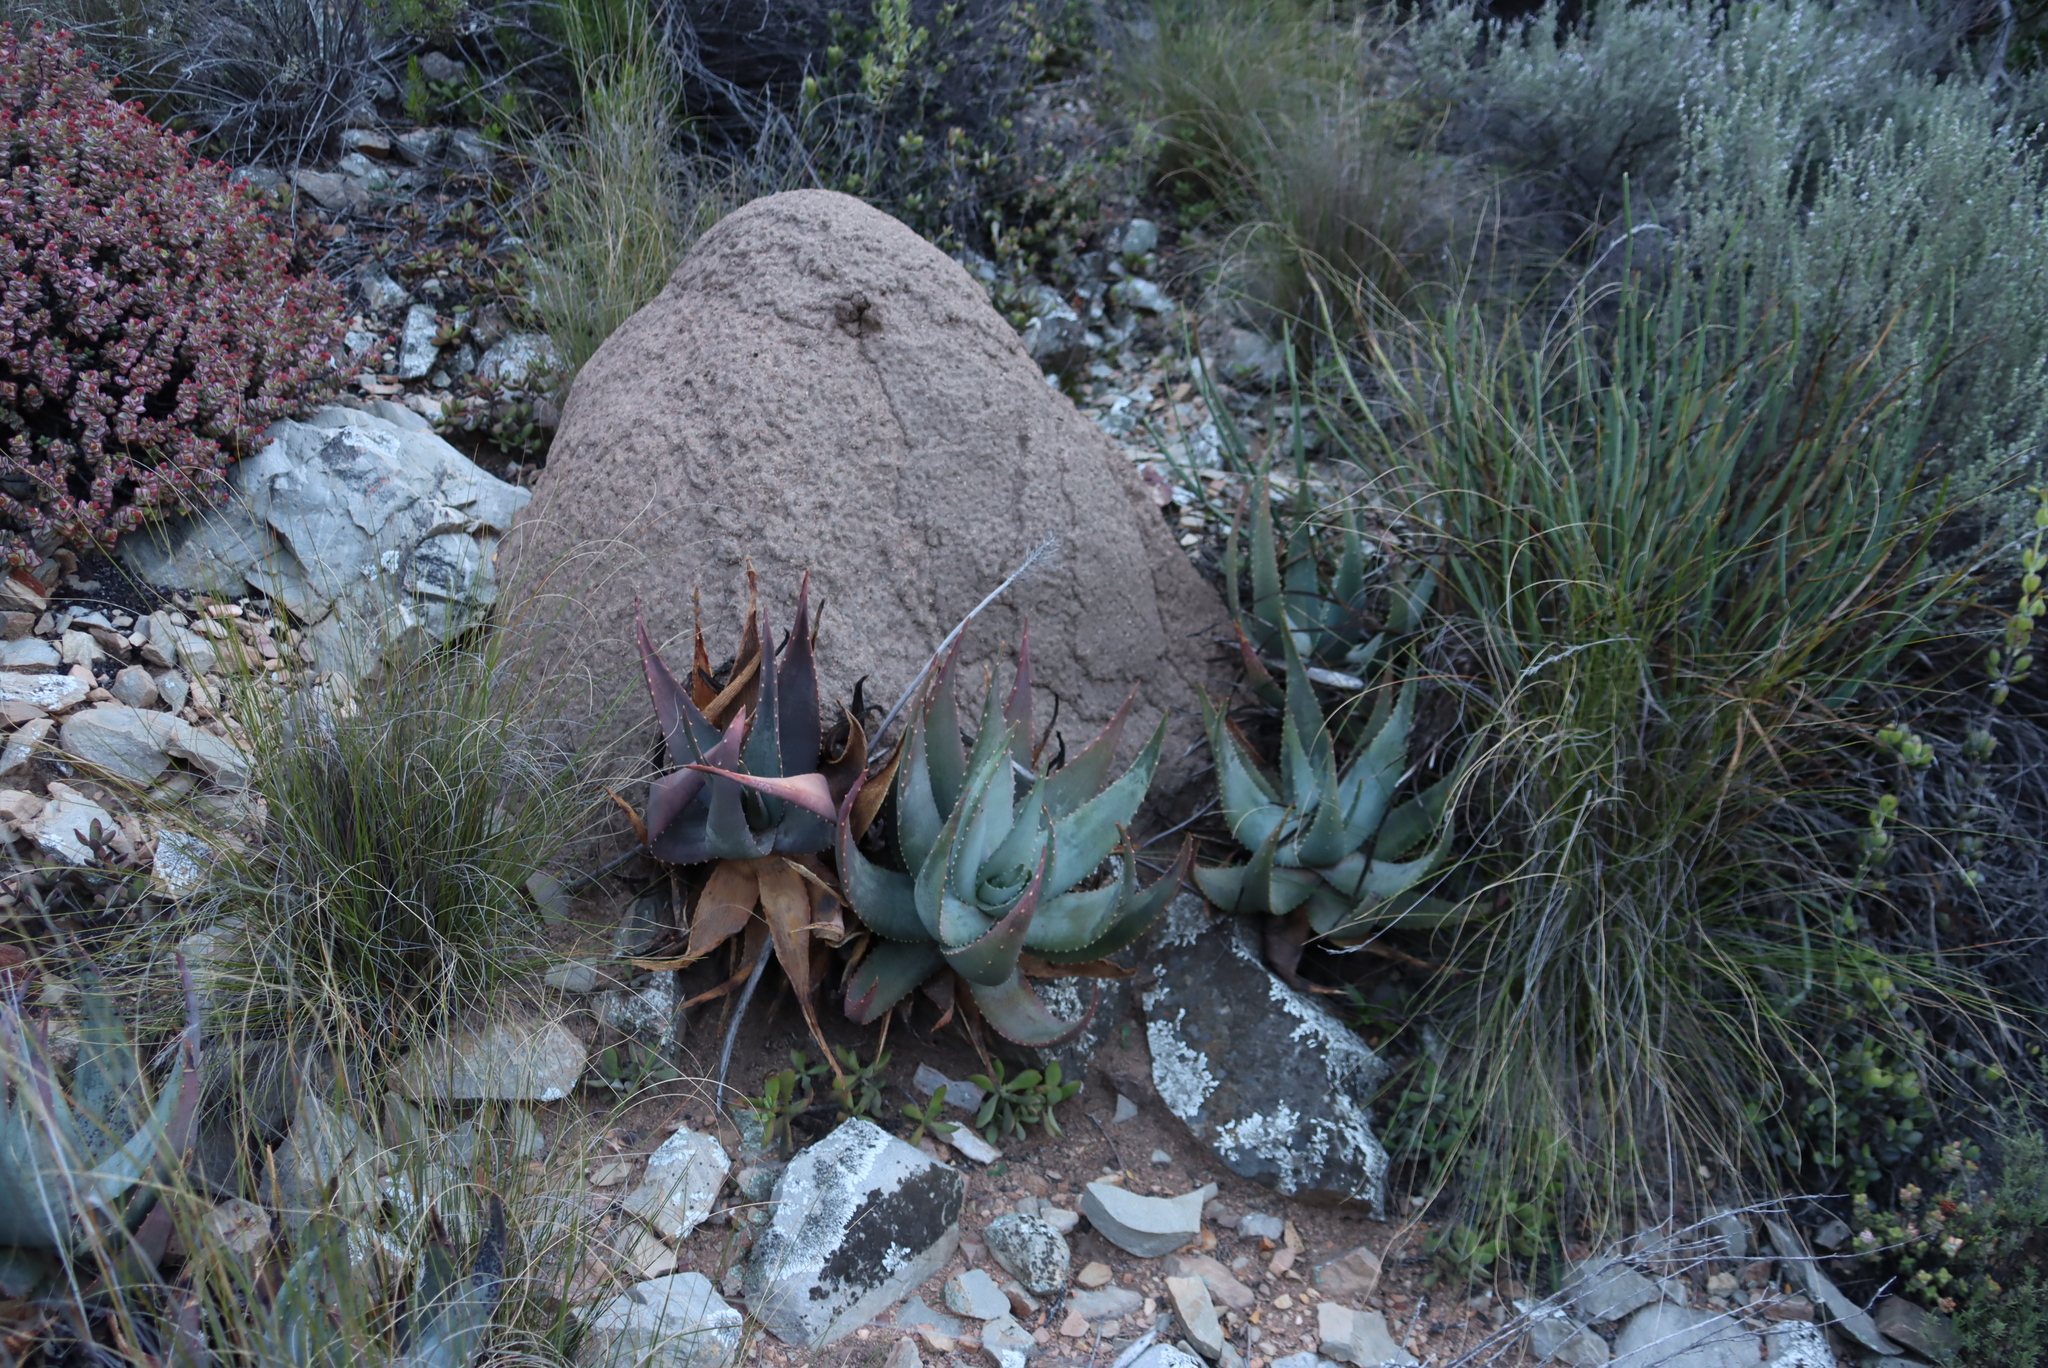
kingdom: Plantae
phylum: Tracheophyta
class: Liliopsida
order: Asparagales
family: Asphodelaceae
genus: Aloe
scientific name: Aloe comptonii
